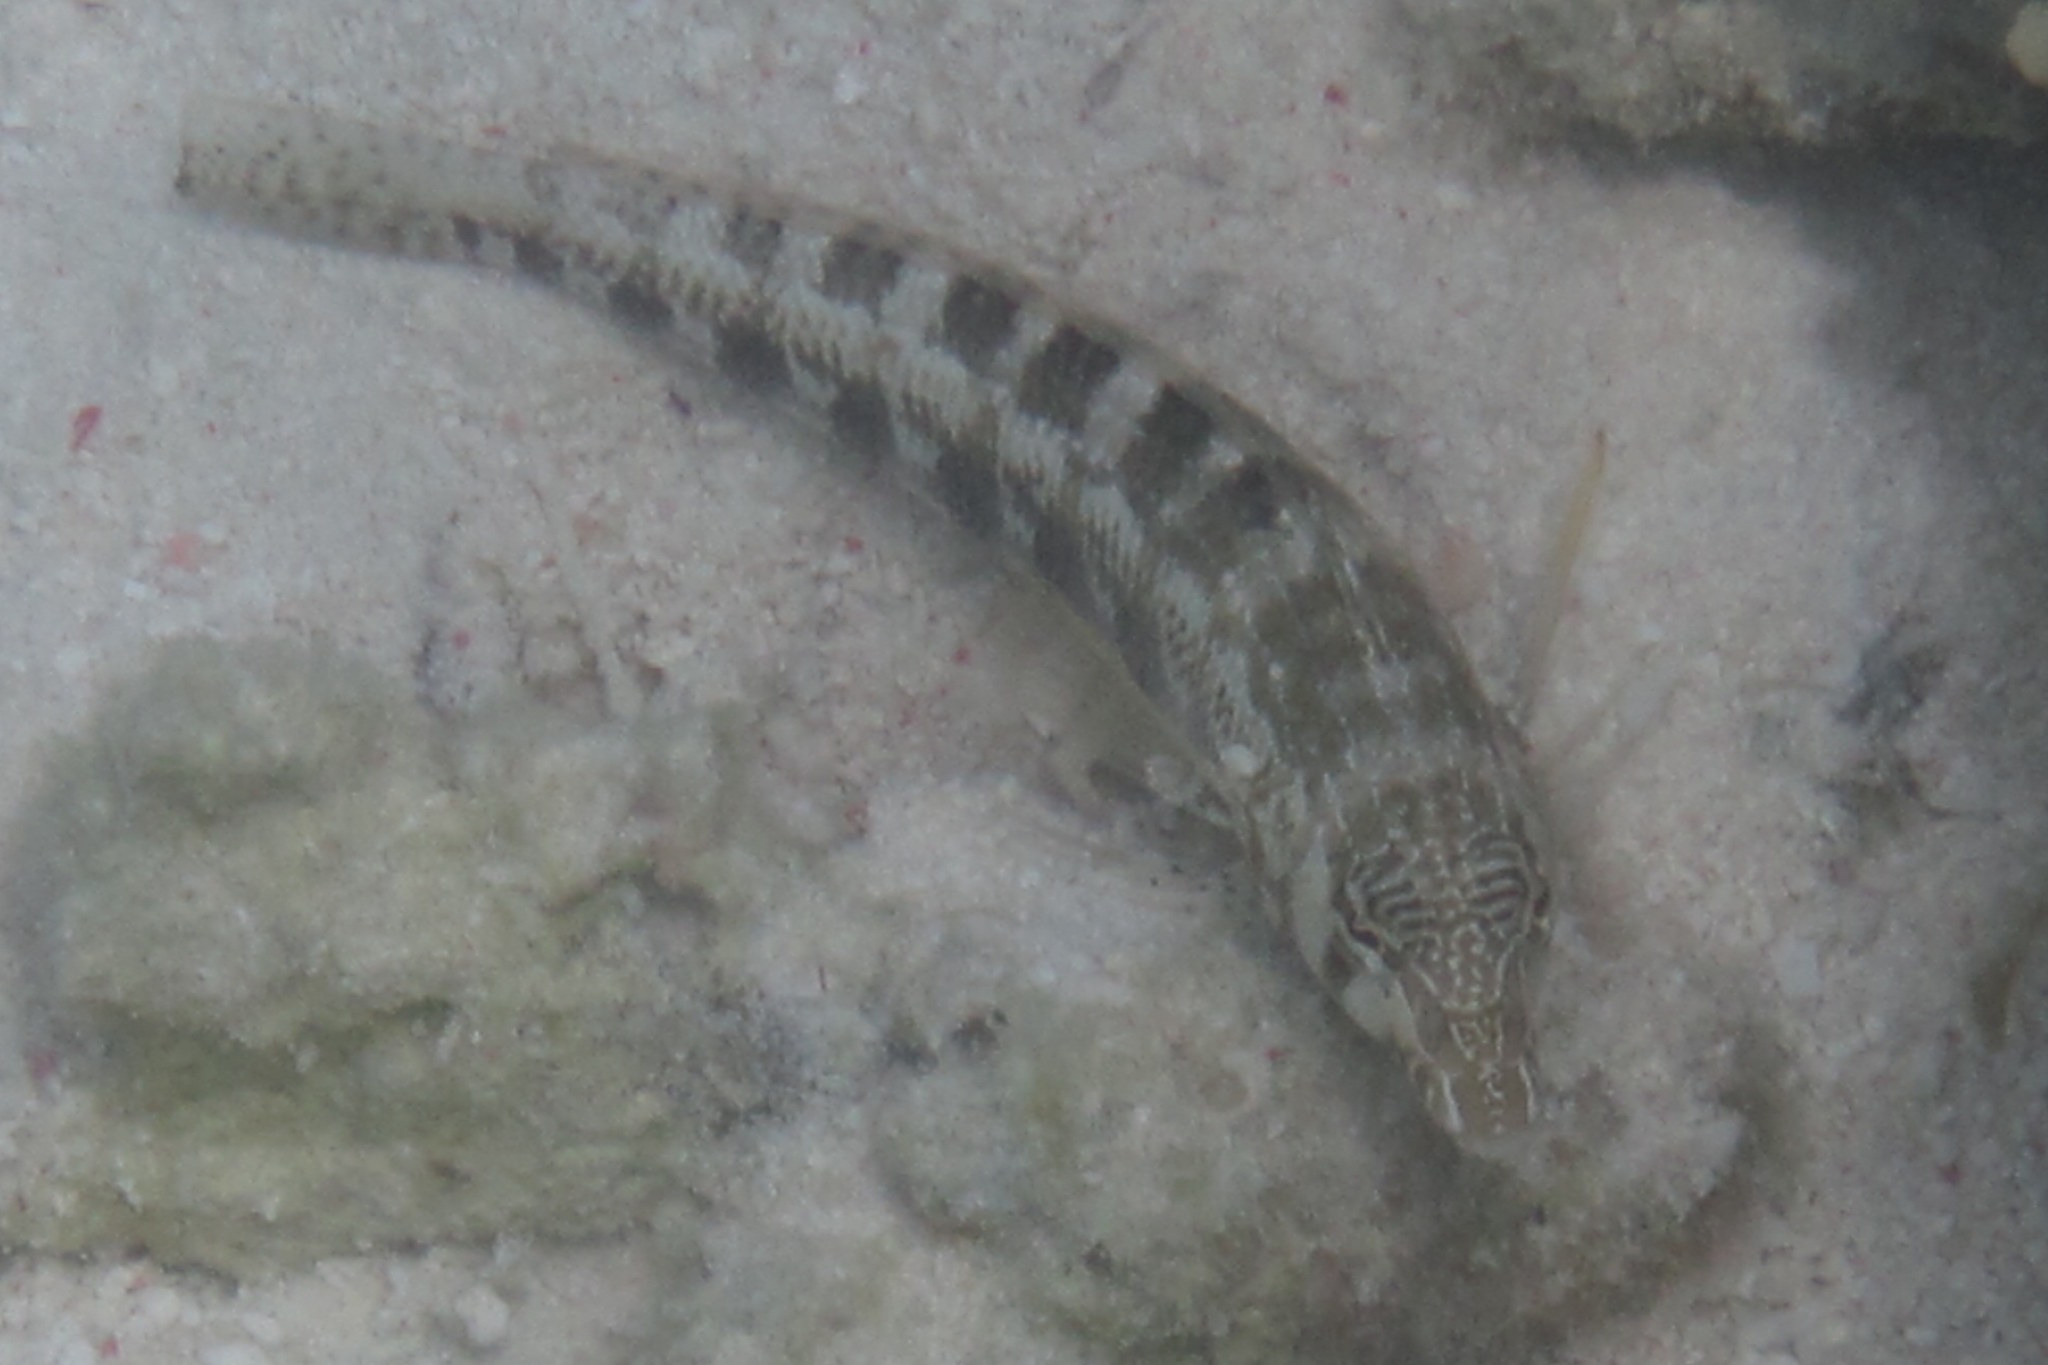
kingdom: Animalia
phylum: Chordata
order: Perciformes
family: Pinguipedidae
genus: Parapercis
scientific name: Parapercis australis
